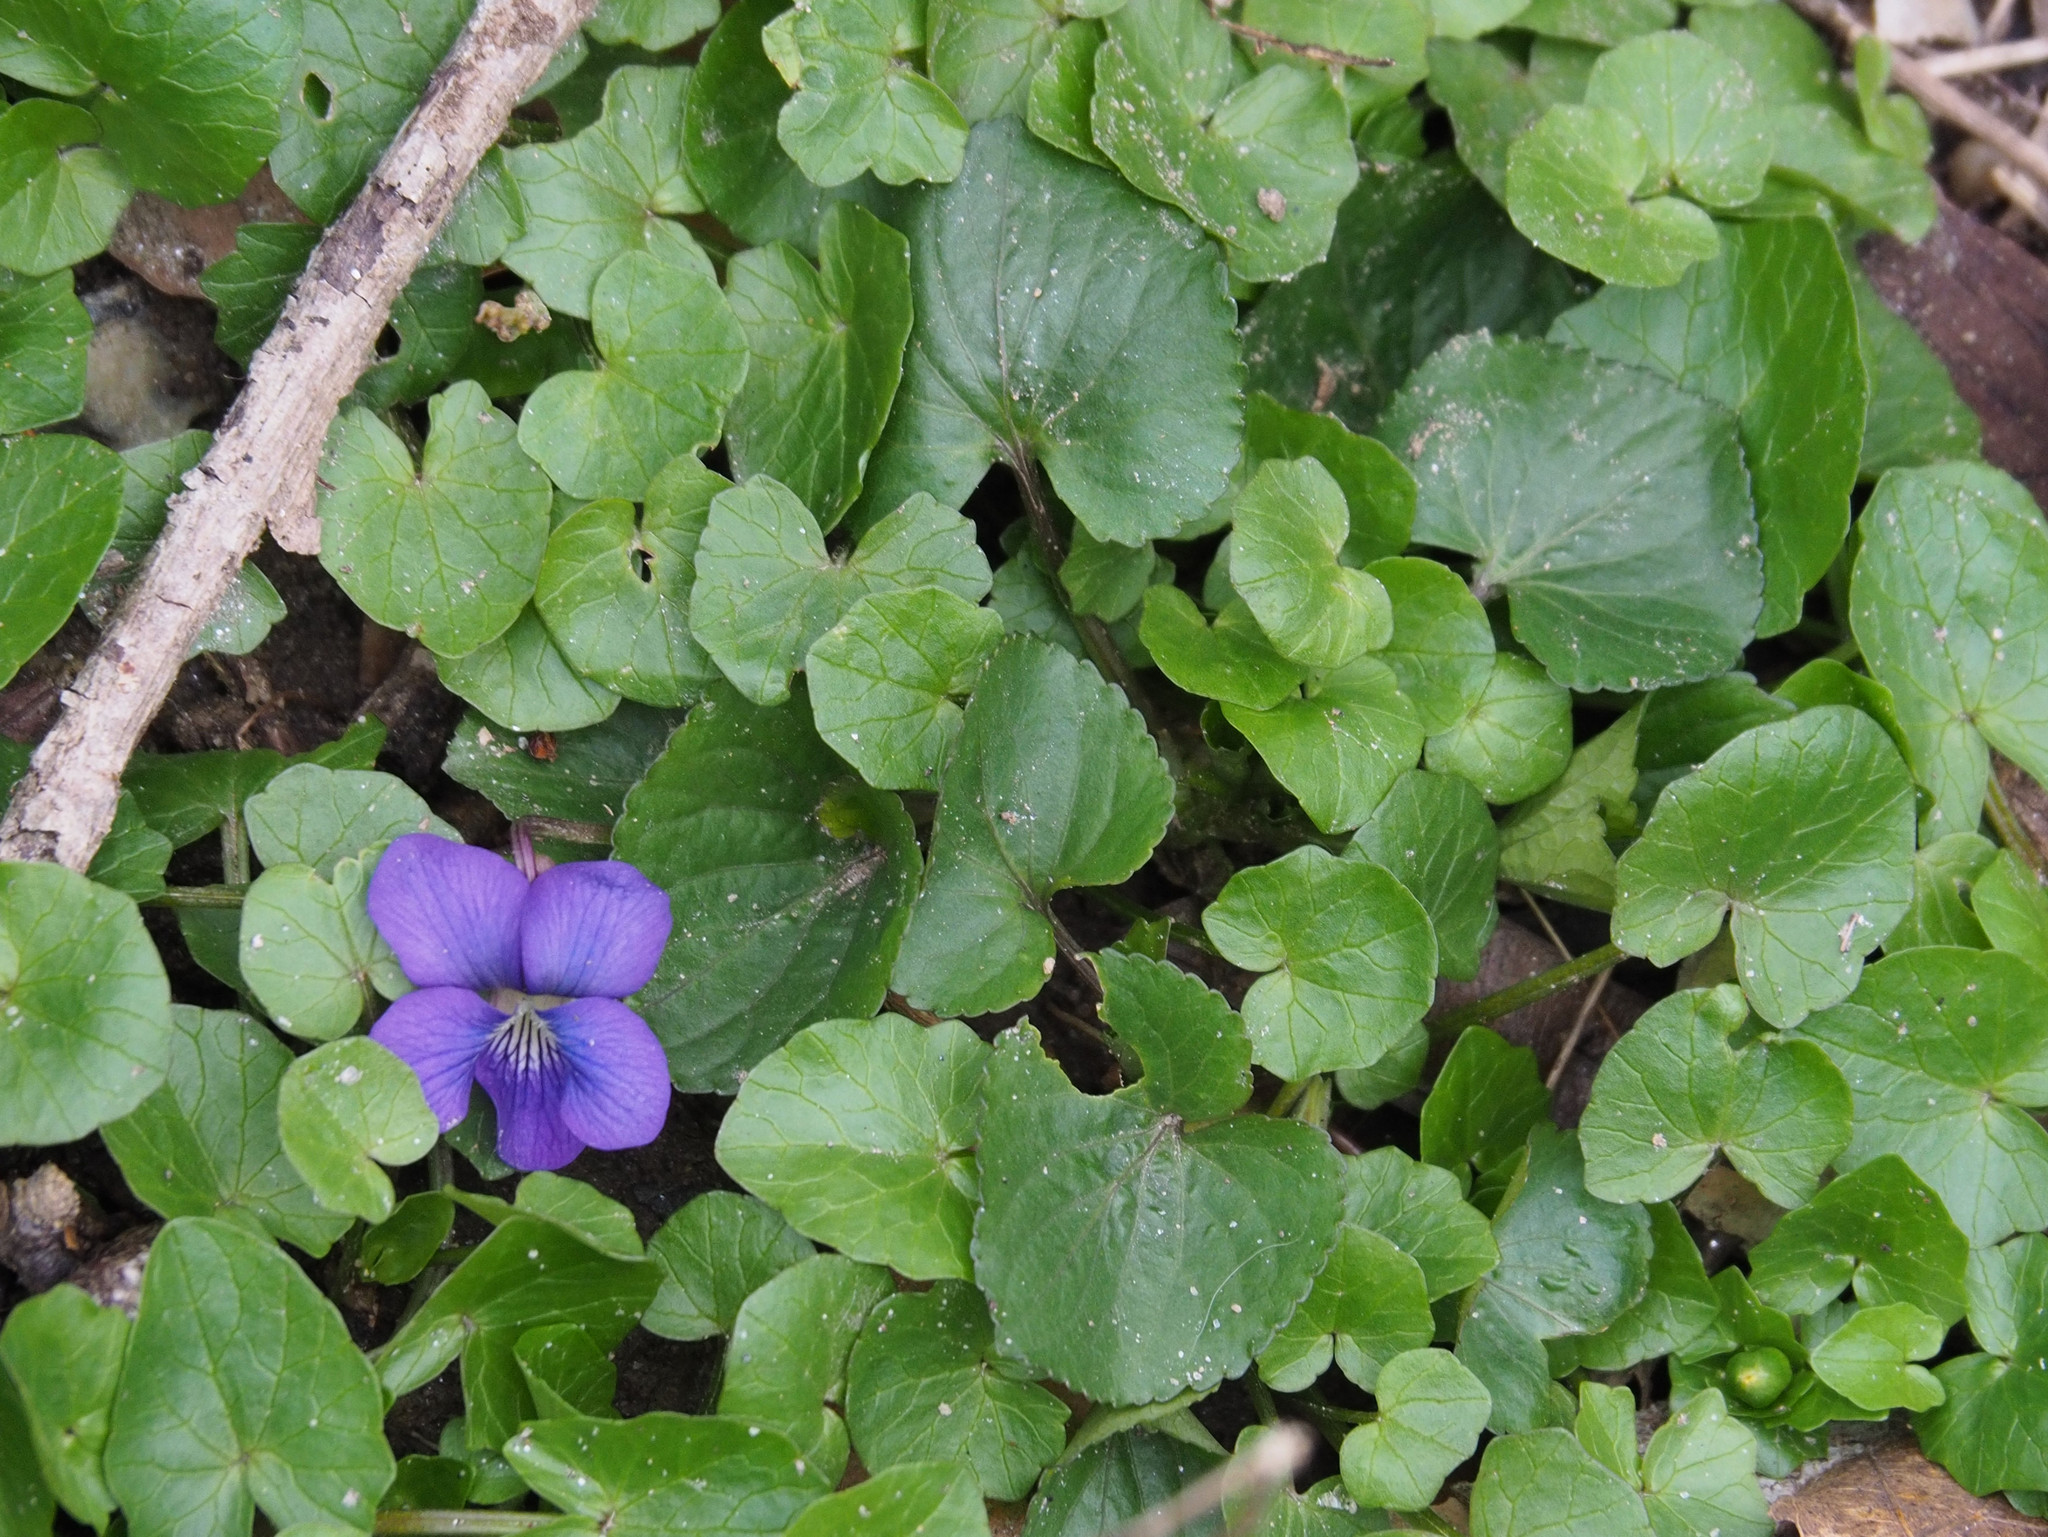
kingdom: Plantae
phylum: Tracheophyta
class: Magnoliopsida
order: Malpighiales
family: Violaceae
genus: Viola
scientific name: Viola sororia
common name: Dooryard violet
